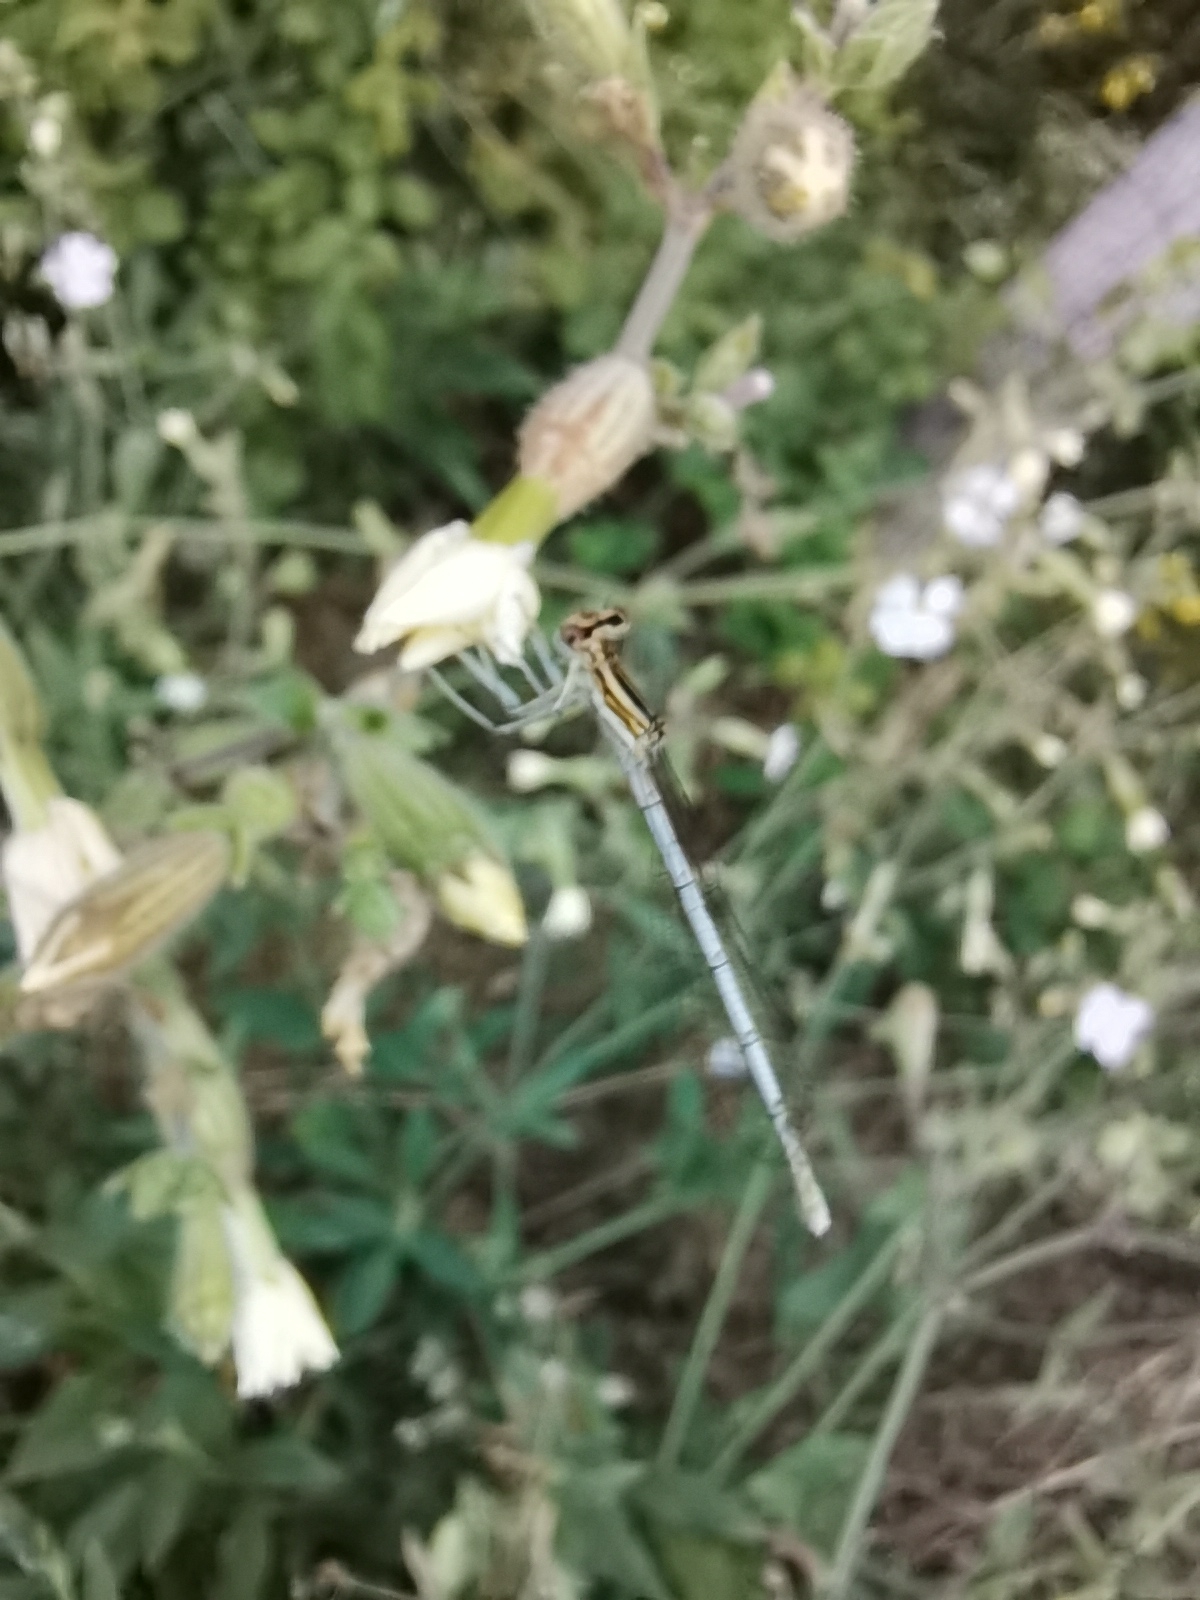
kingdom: Animalia
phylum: Arthropoda
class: Insecta
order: Odonata
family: Platycnemididae
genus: Platycnemis
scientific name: Platycnemis pennipes
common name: White-legged damselfly
